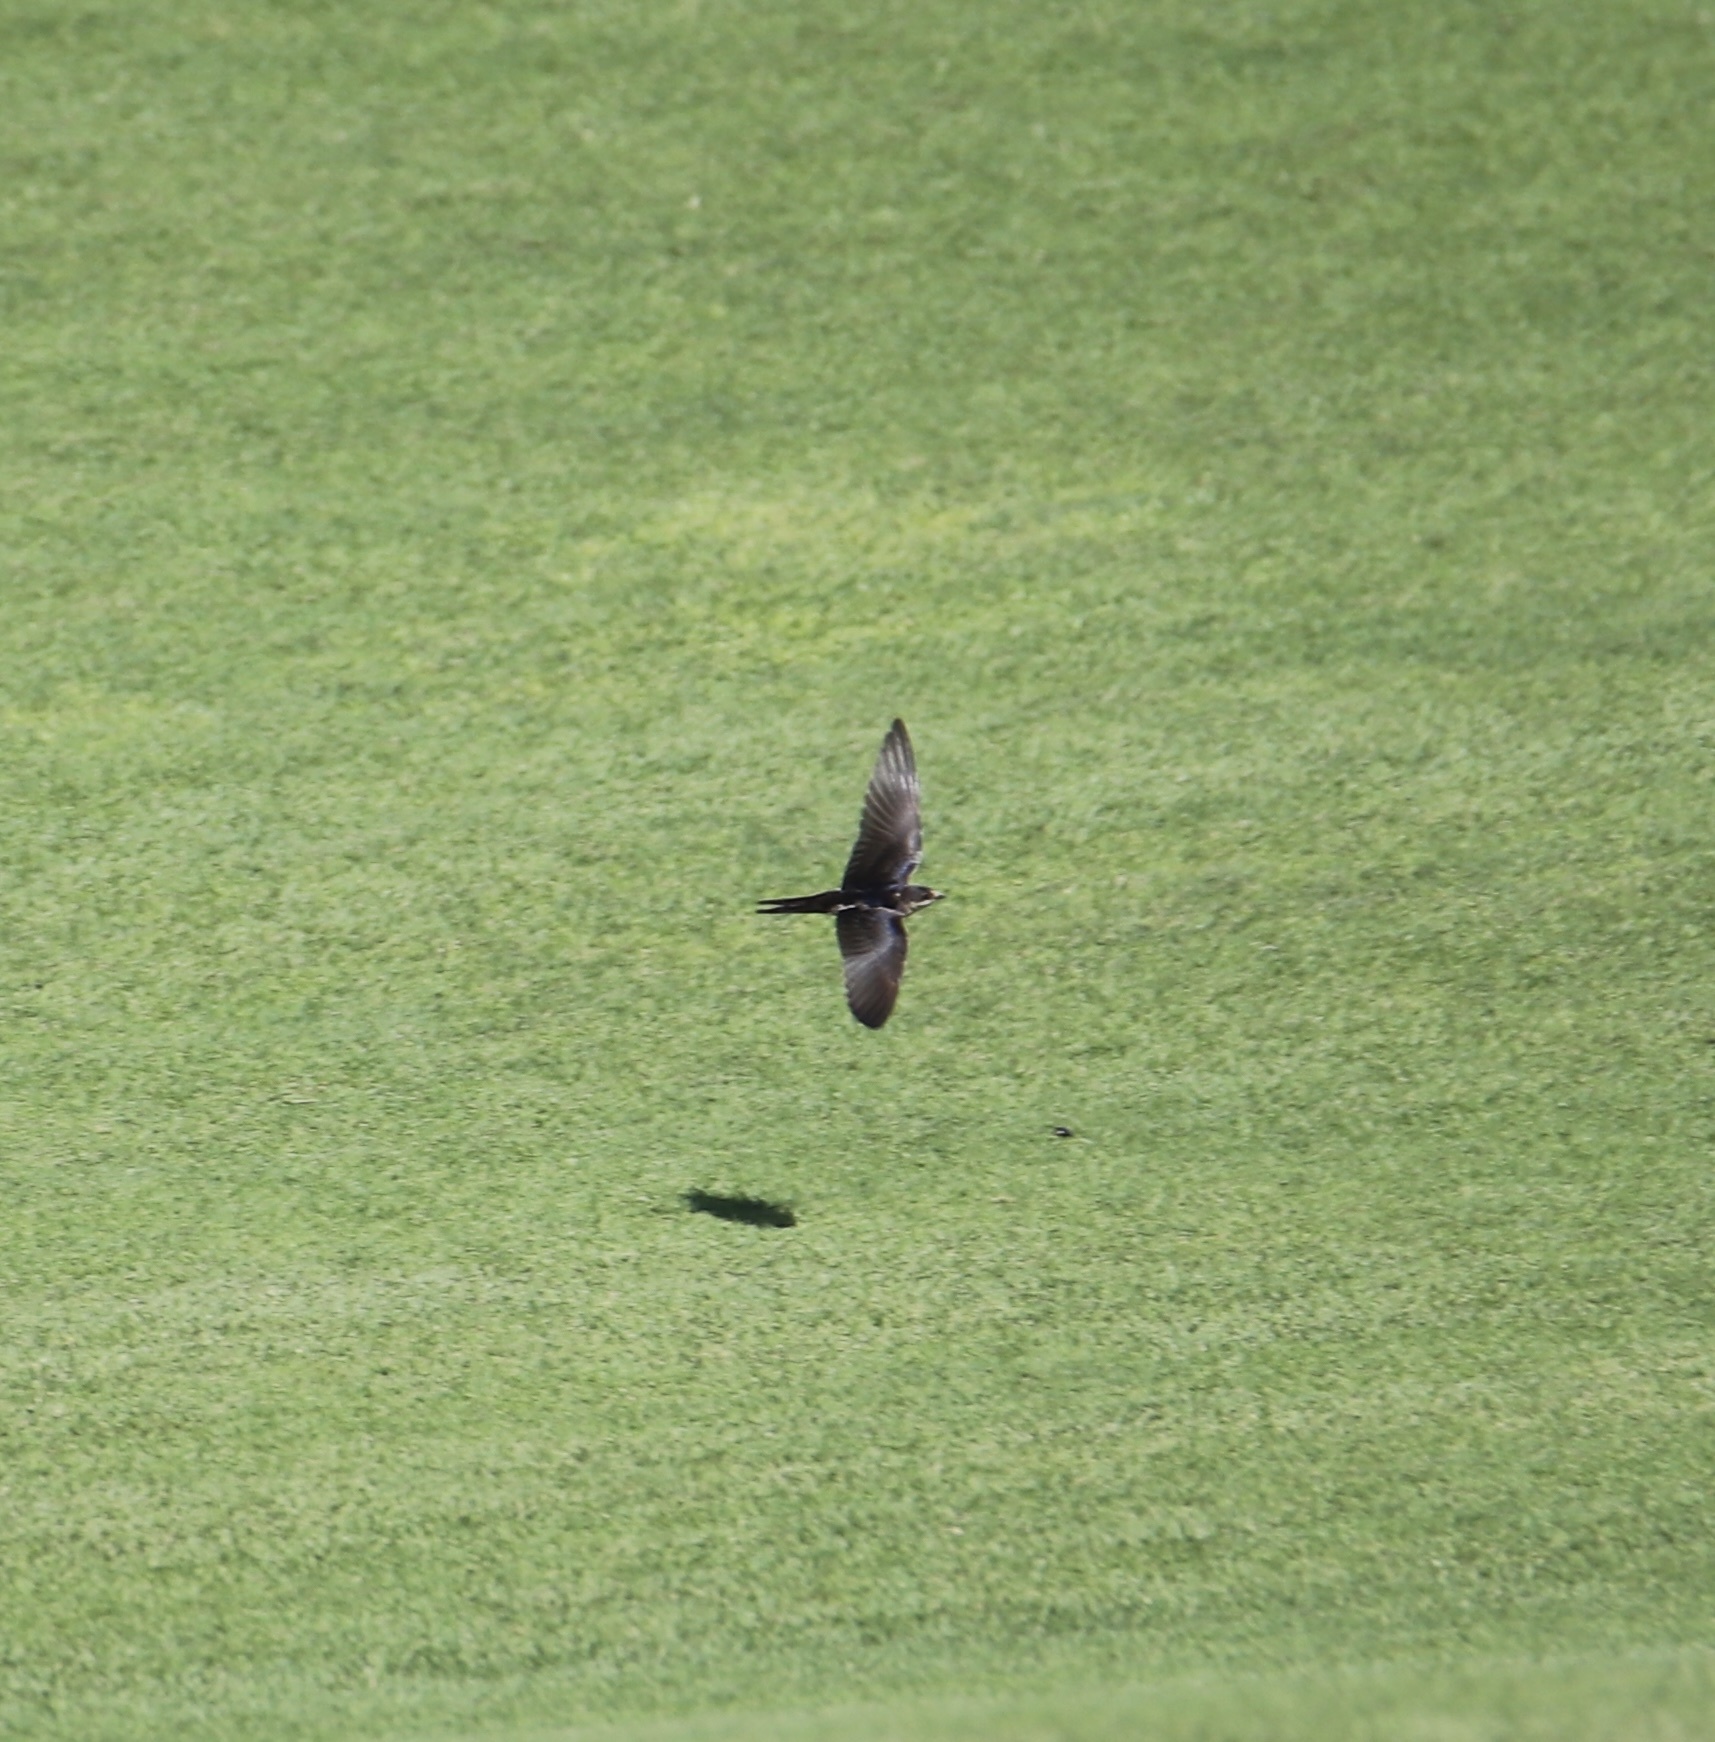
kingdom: Animalia
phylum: Chordata
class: Aves
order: Passeriformes
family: Hirundinidae
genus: Hirundo
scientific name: Hirundo rustica
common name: Barn swallow
